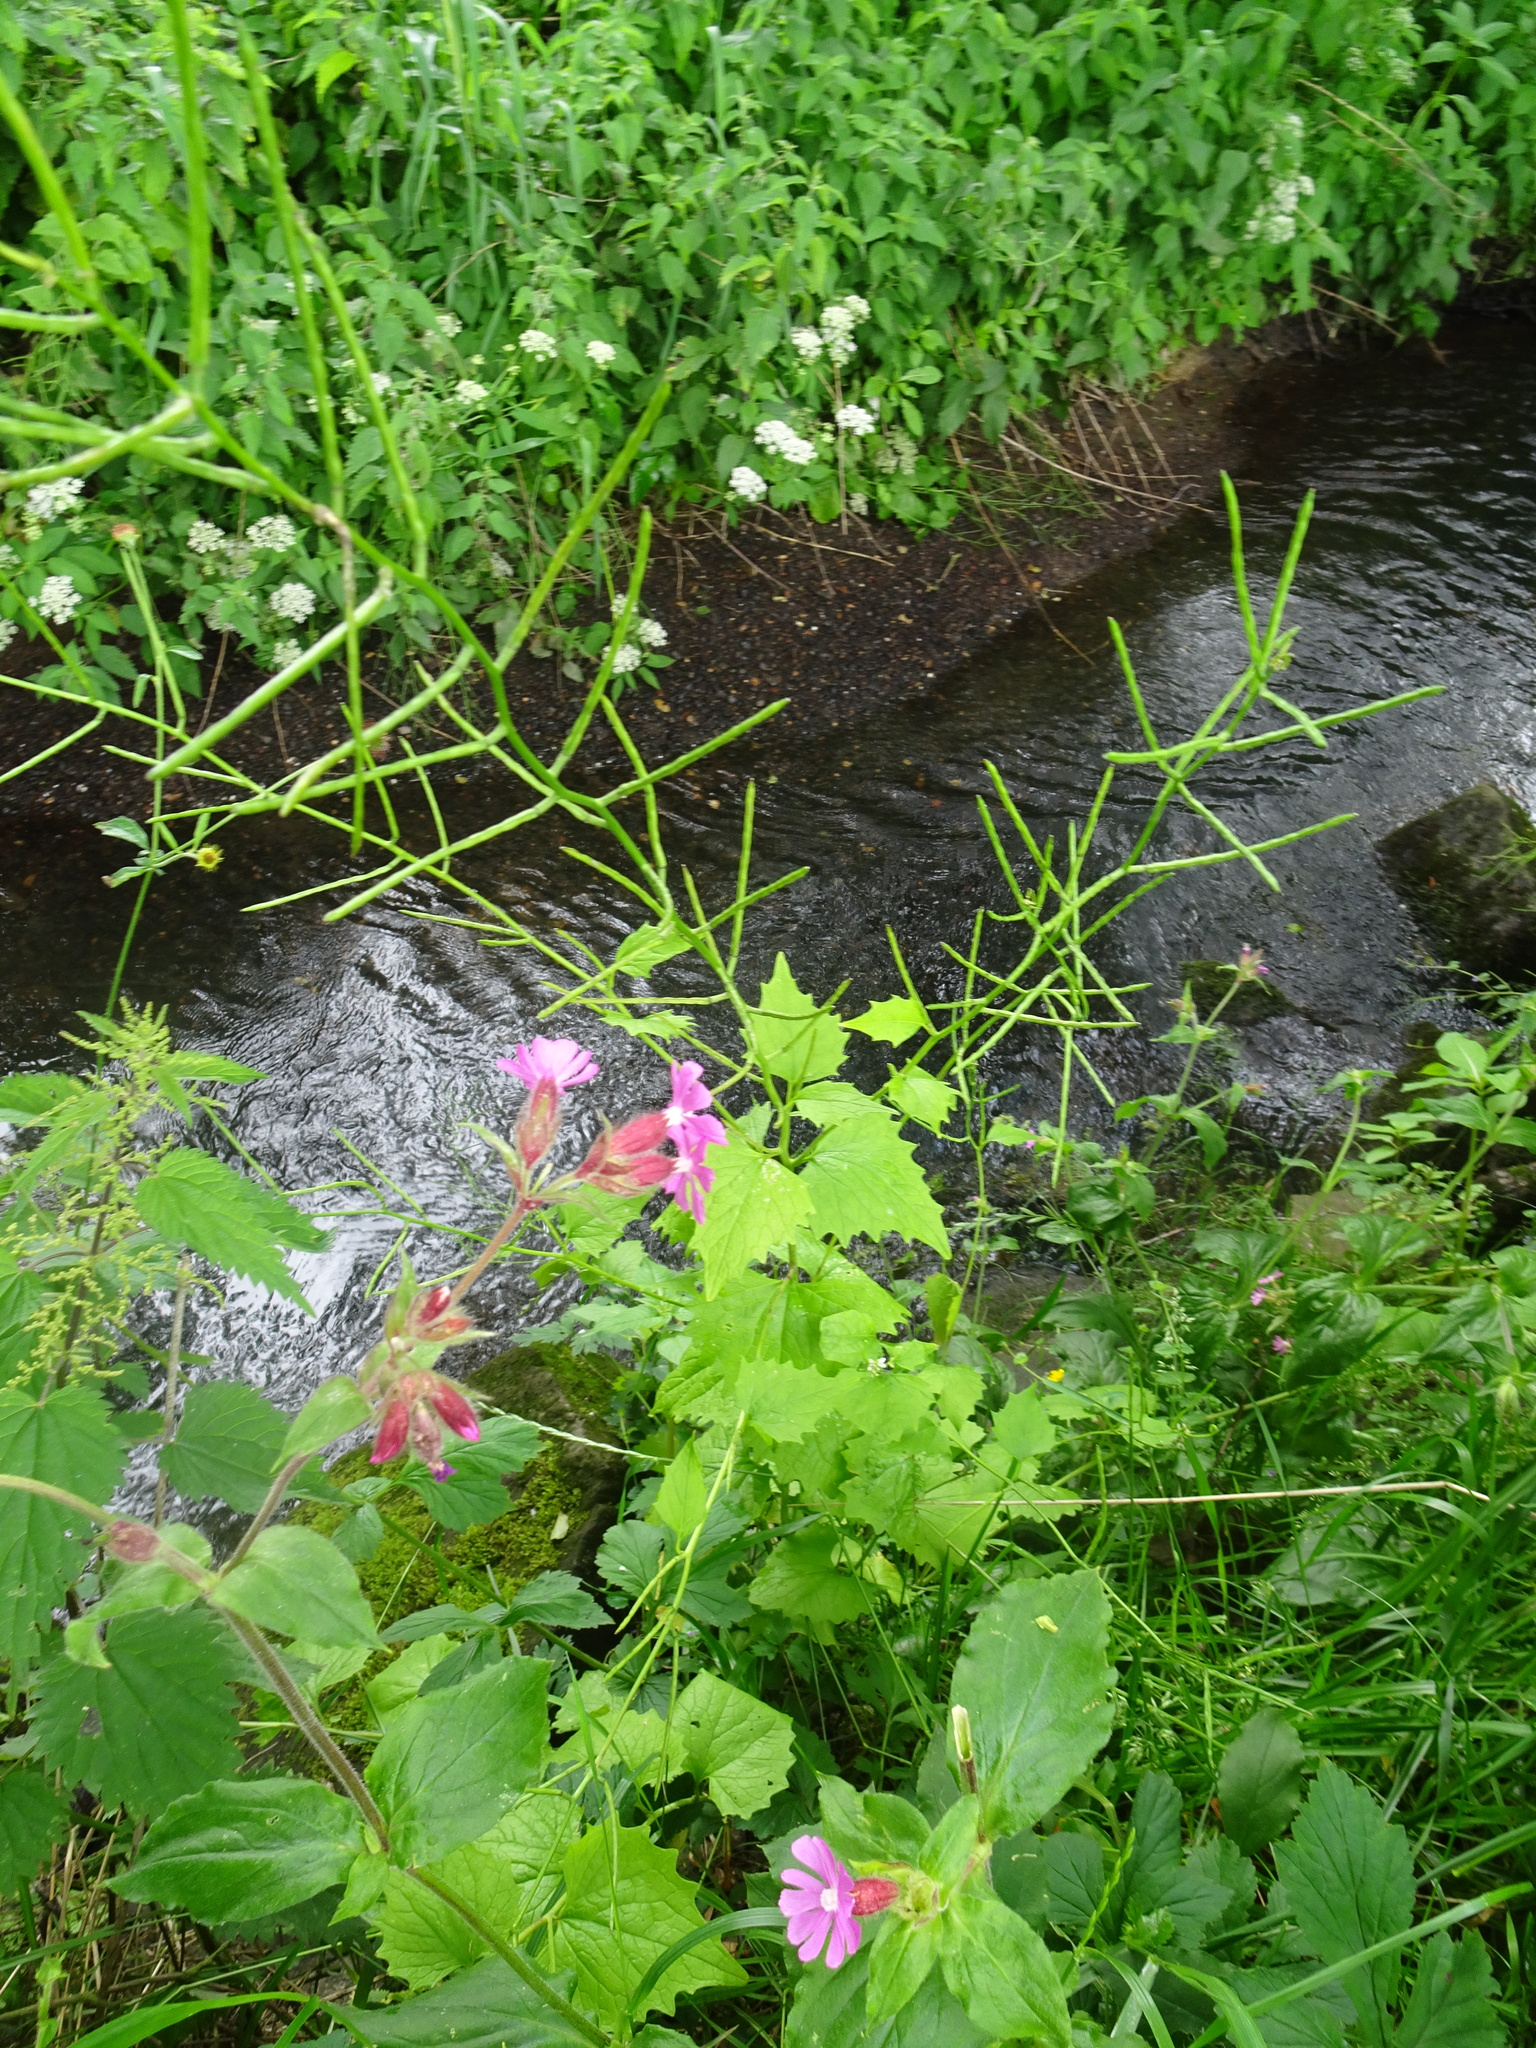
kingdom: Plantae
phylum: Tracheophyta
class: Magnoliopsida
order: Brassicales
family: Brassicaceae
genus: Alliaria
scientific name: Alliaria petiolata
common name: Garlic mustard
